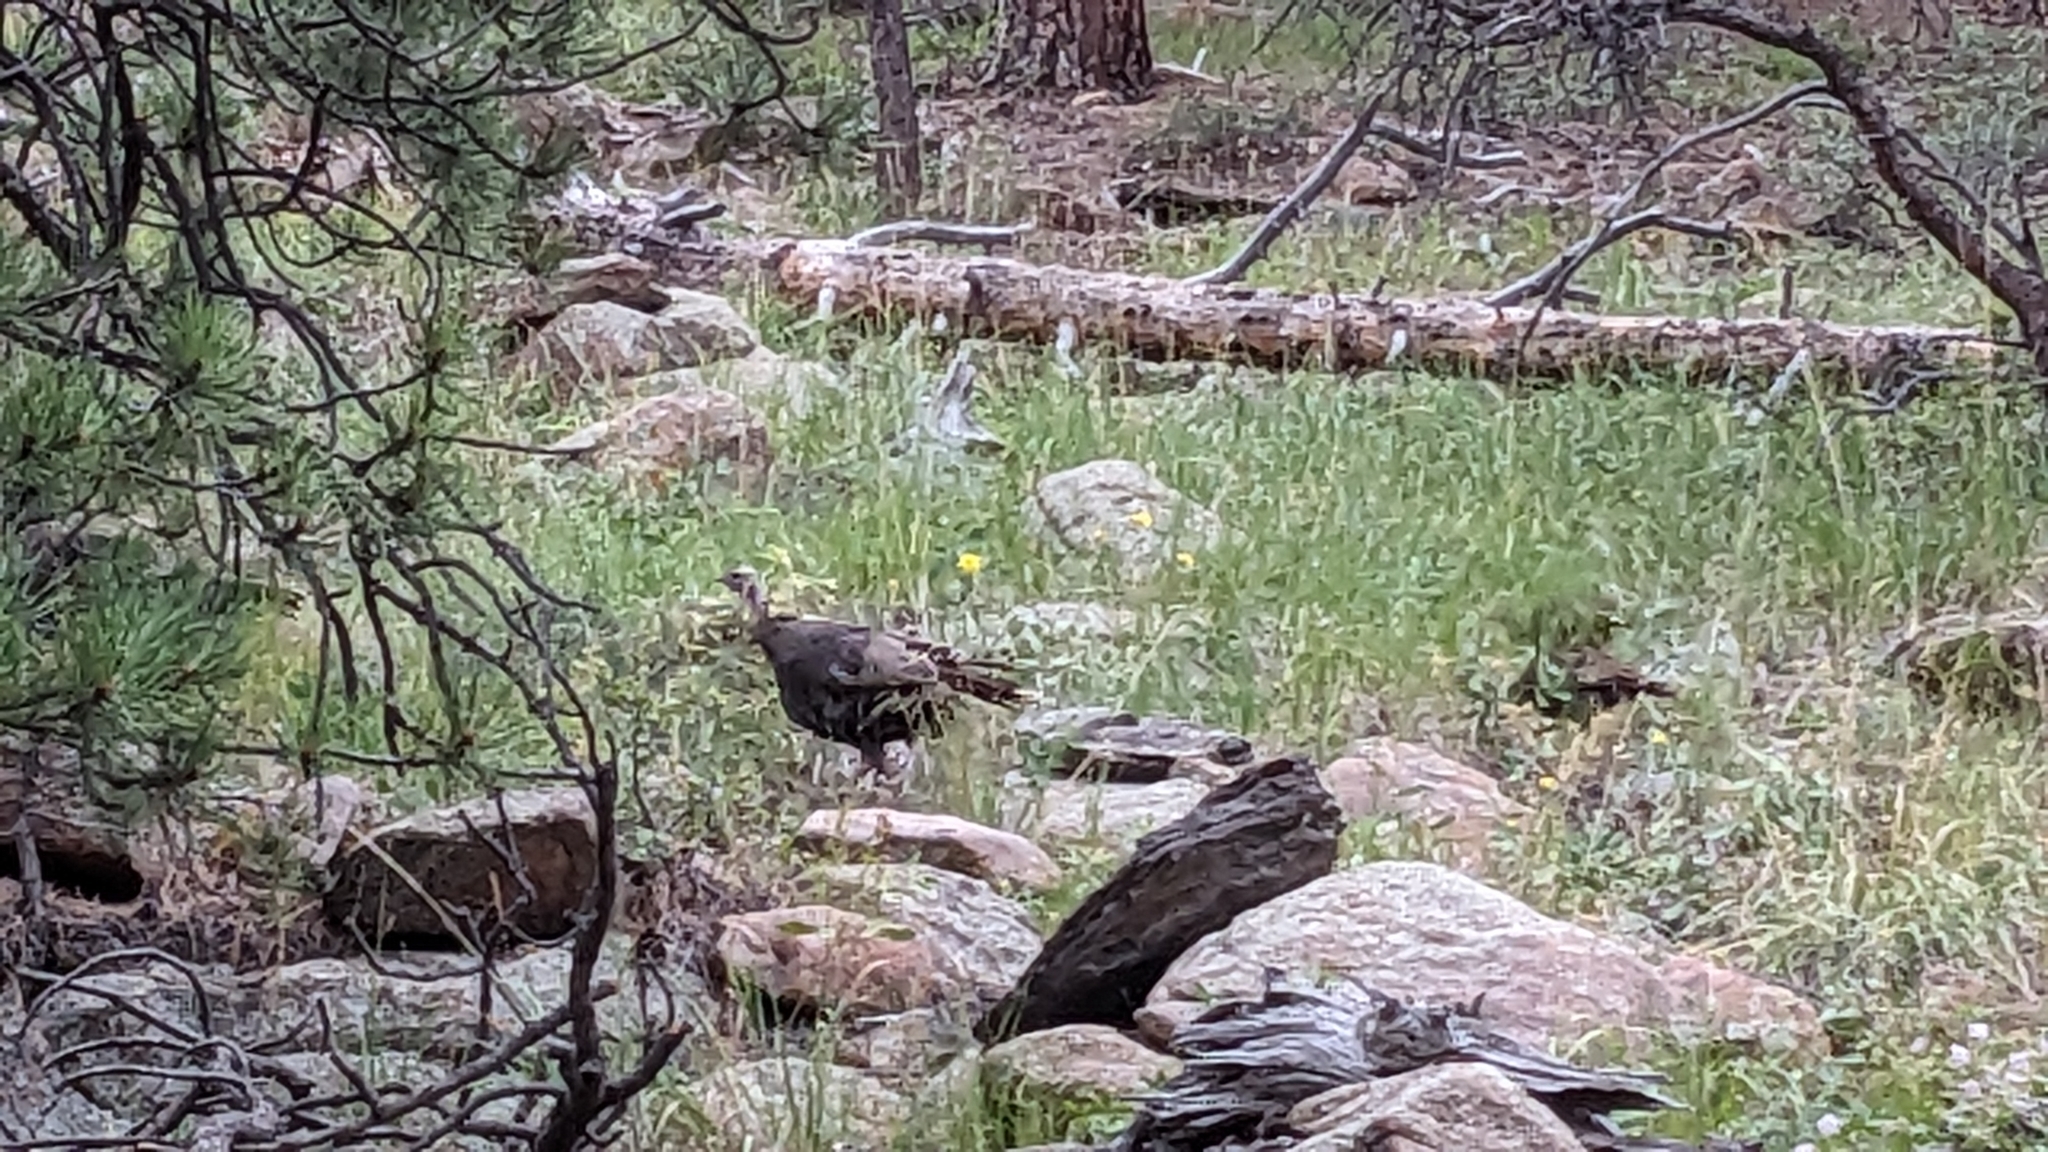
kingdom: Animalia
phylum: Chordata
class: Aves
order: Galliformes
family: Phasianidae
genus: Meleagris
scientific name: Meleagris gallopavo
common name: Wild turkey
